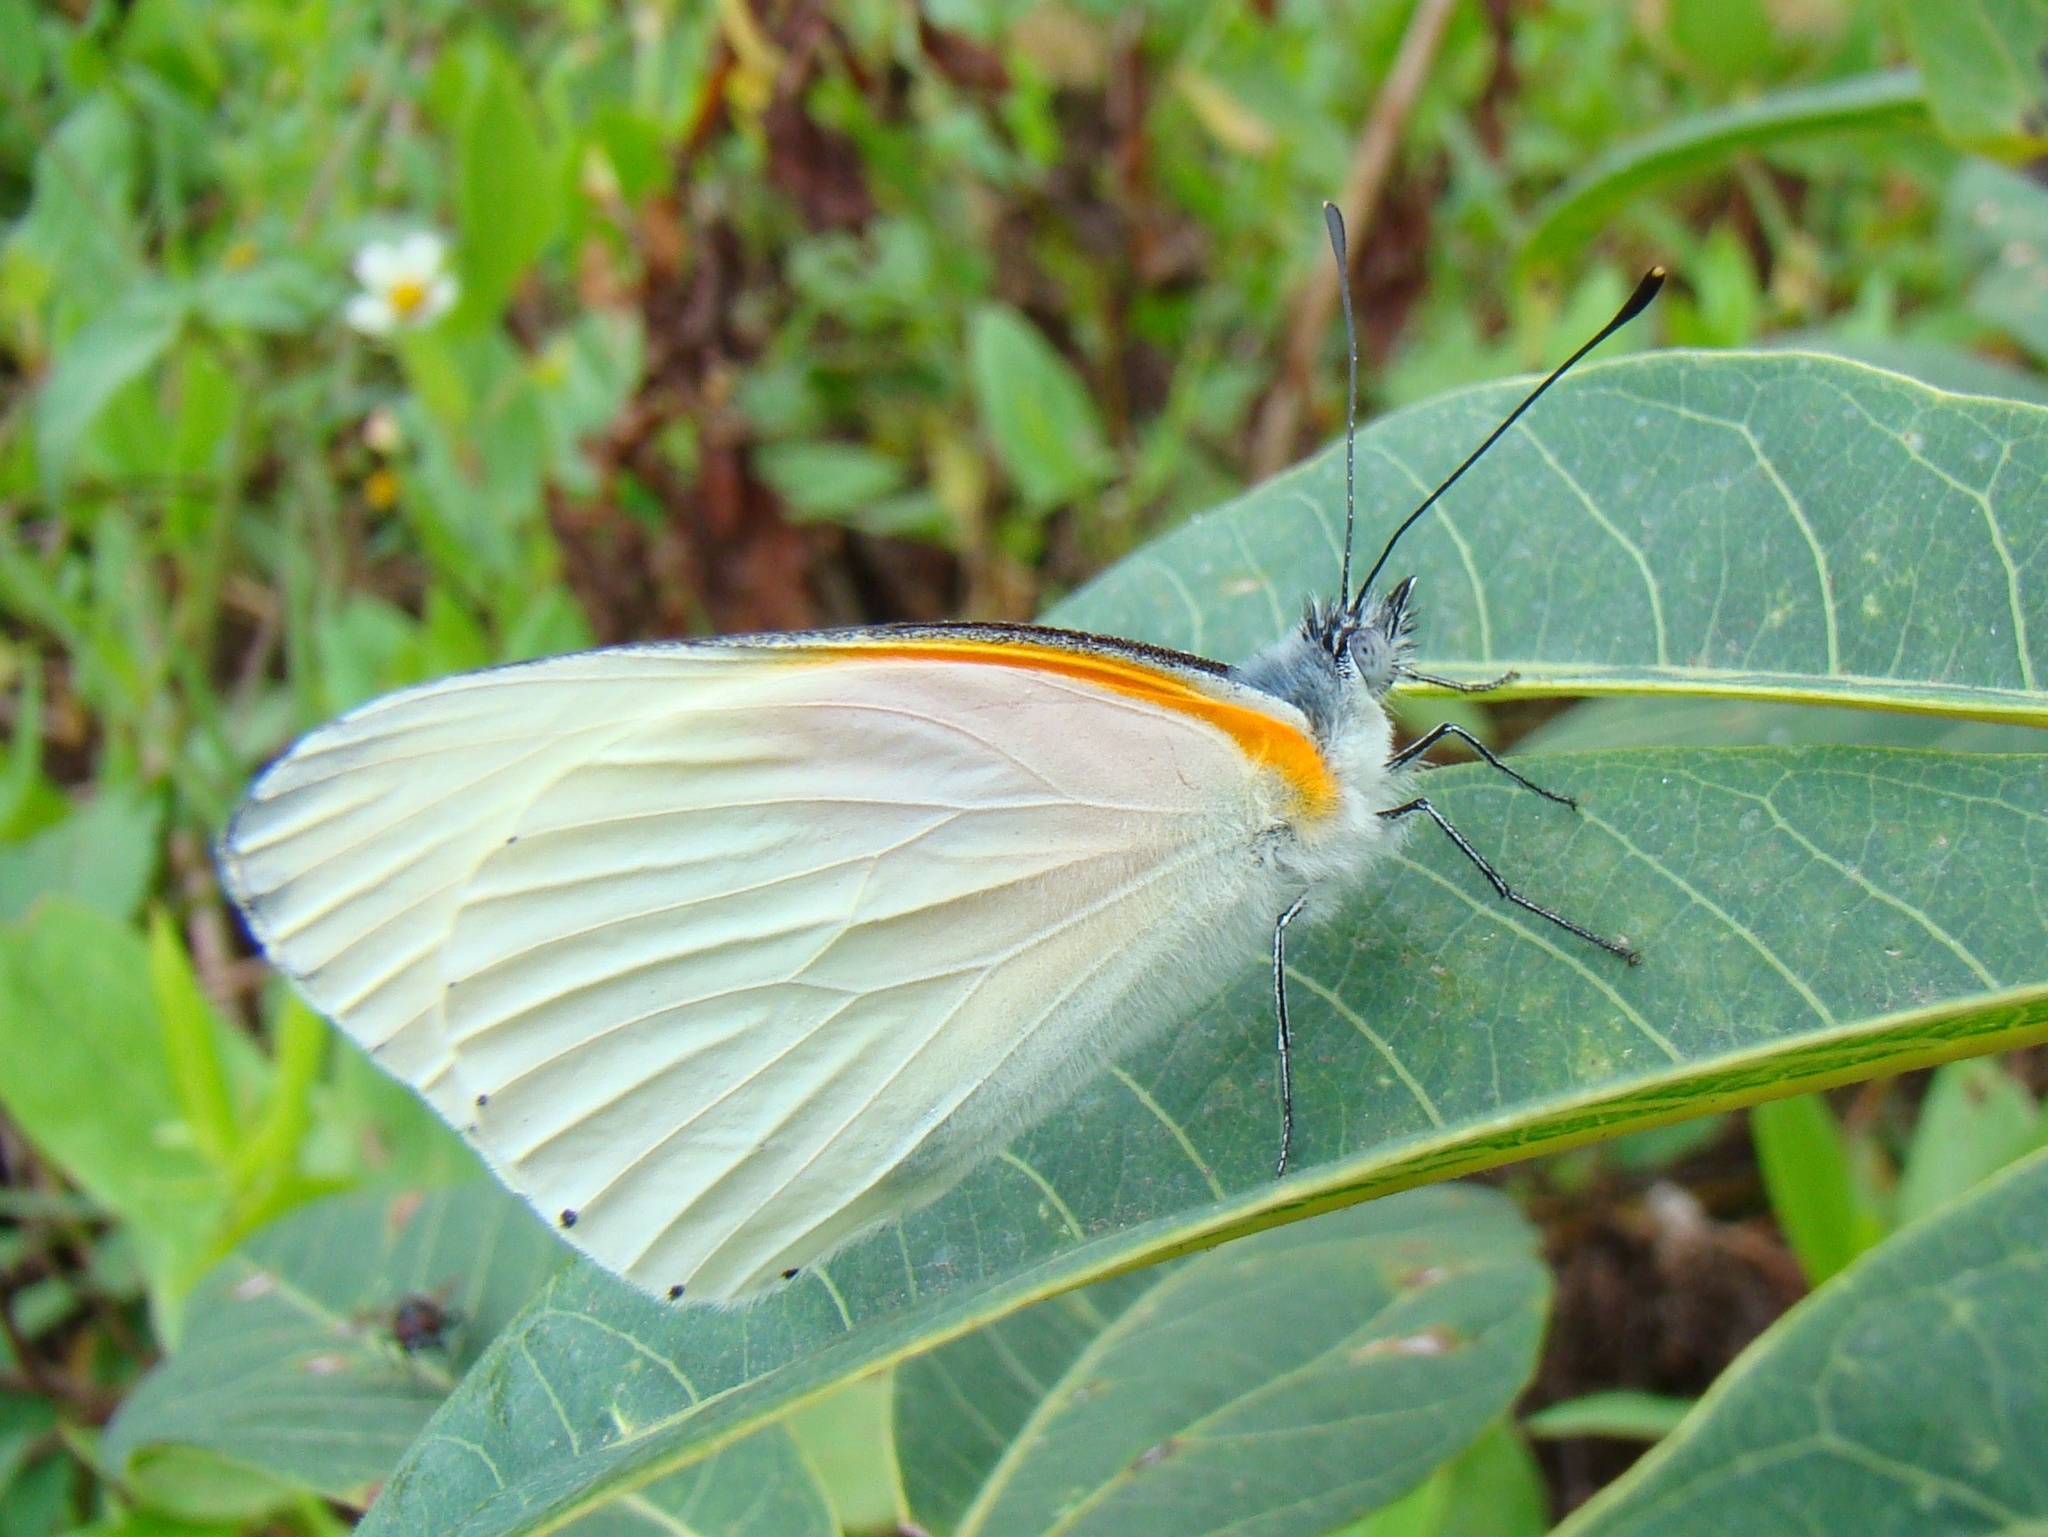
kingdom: Animalia
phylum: Arthropoda
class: Insecta
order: Lepidoptera
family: Pieridae
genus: Mylothris
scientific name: Mylothris rueppellii
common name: Twin dotted border
